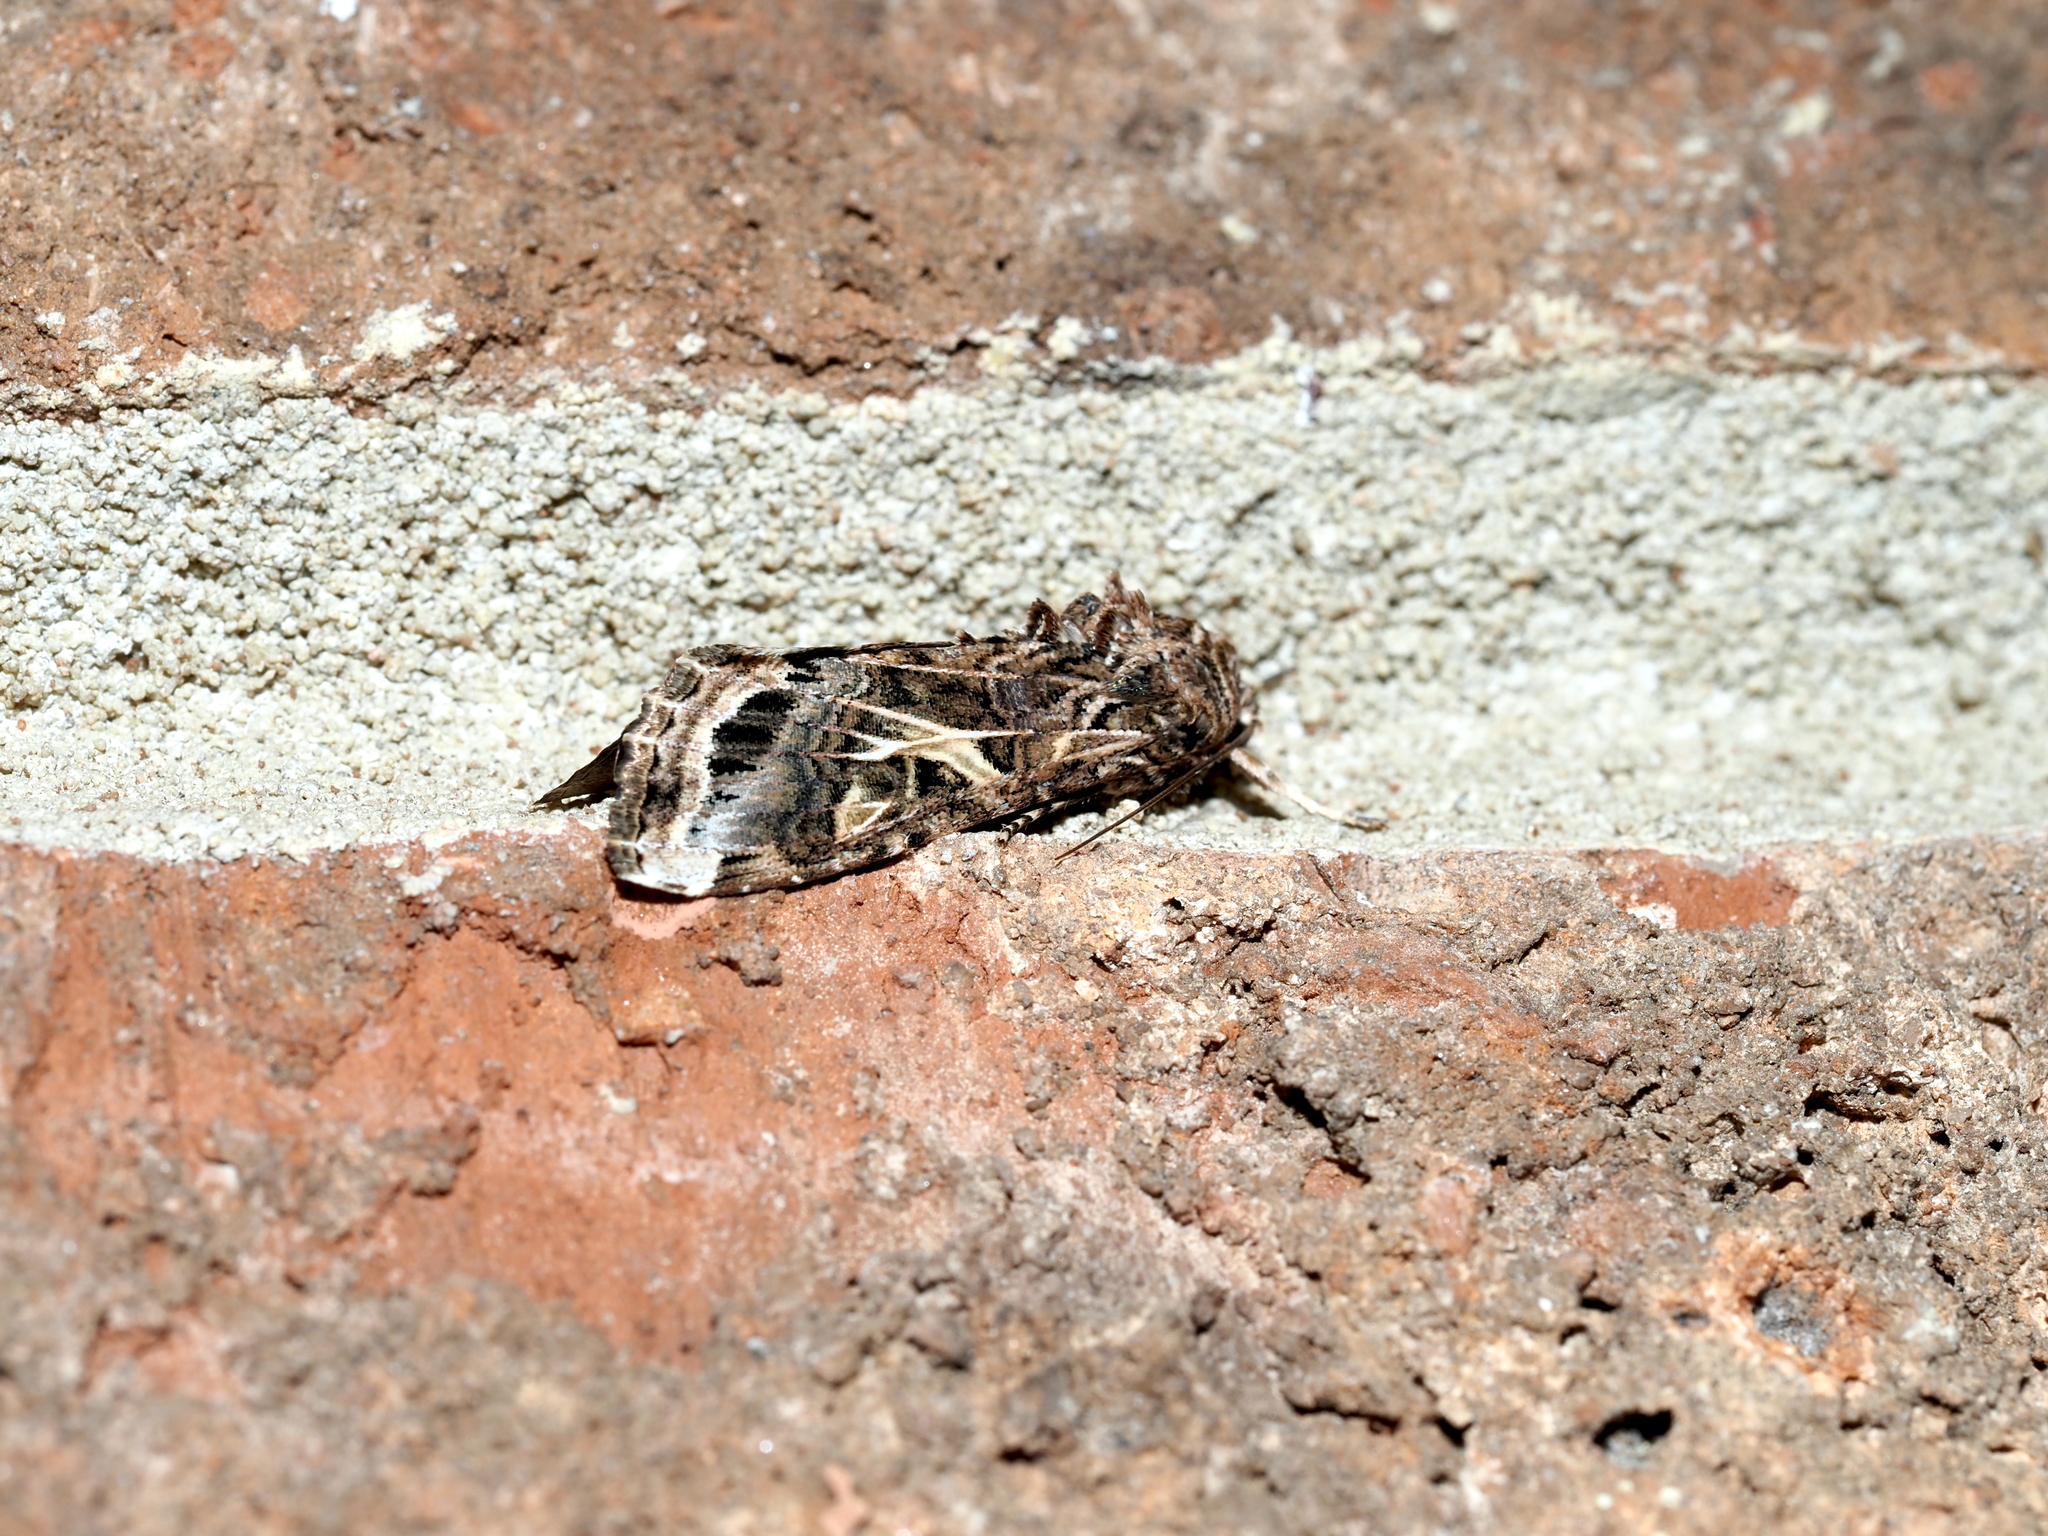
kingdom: Animalia
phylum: Arthropoda
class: Insecta
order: Lepidoptera
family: Noctuidae
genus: Spodoptera
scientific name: Spodoptera ornithogalli
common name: Yellow-striped armyworm
